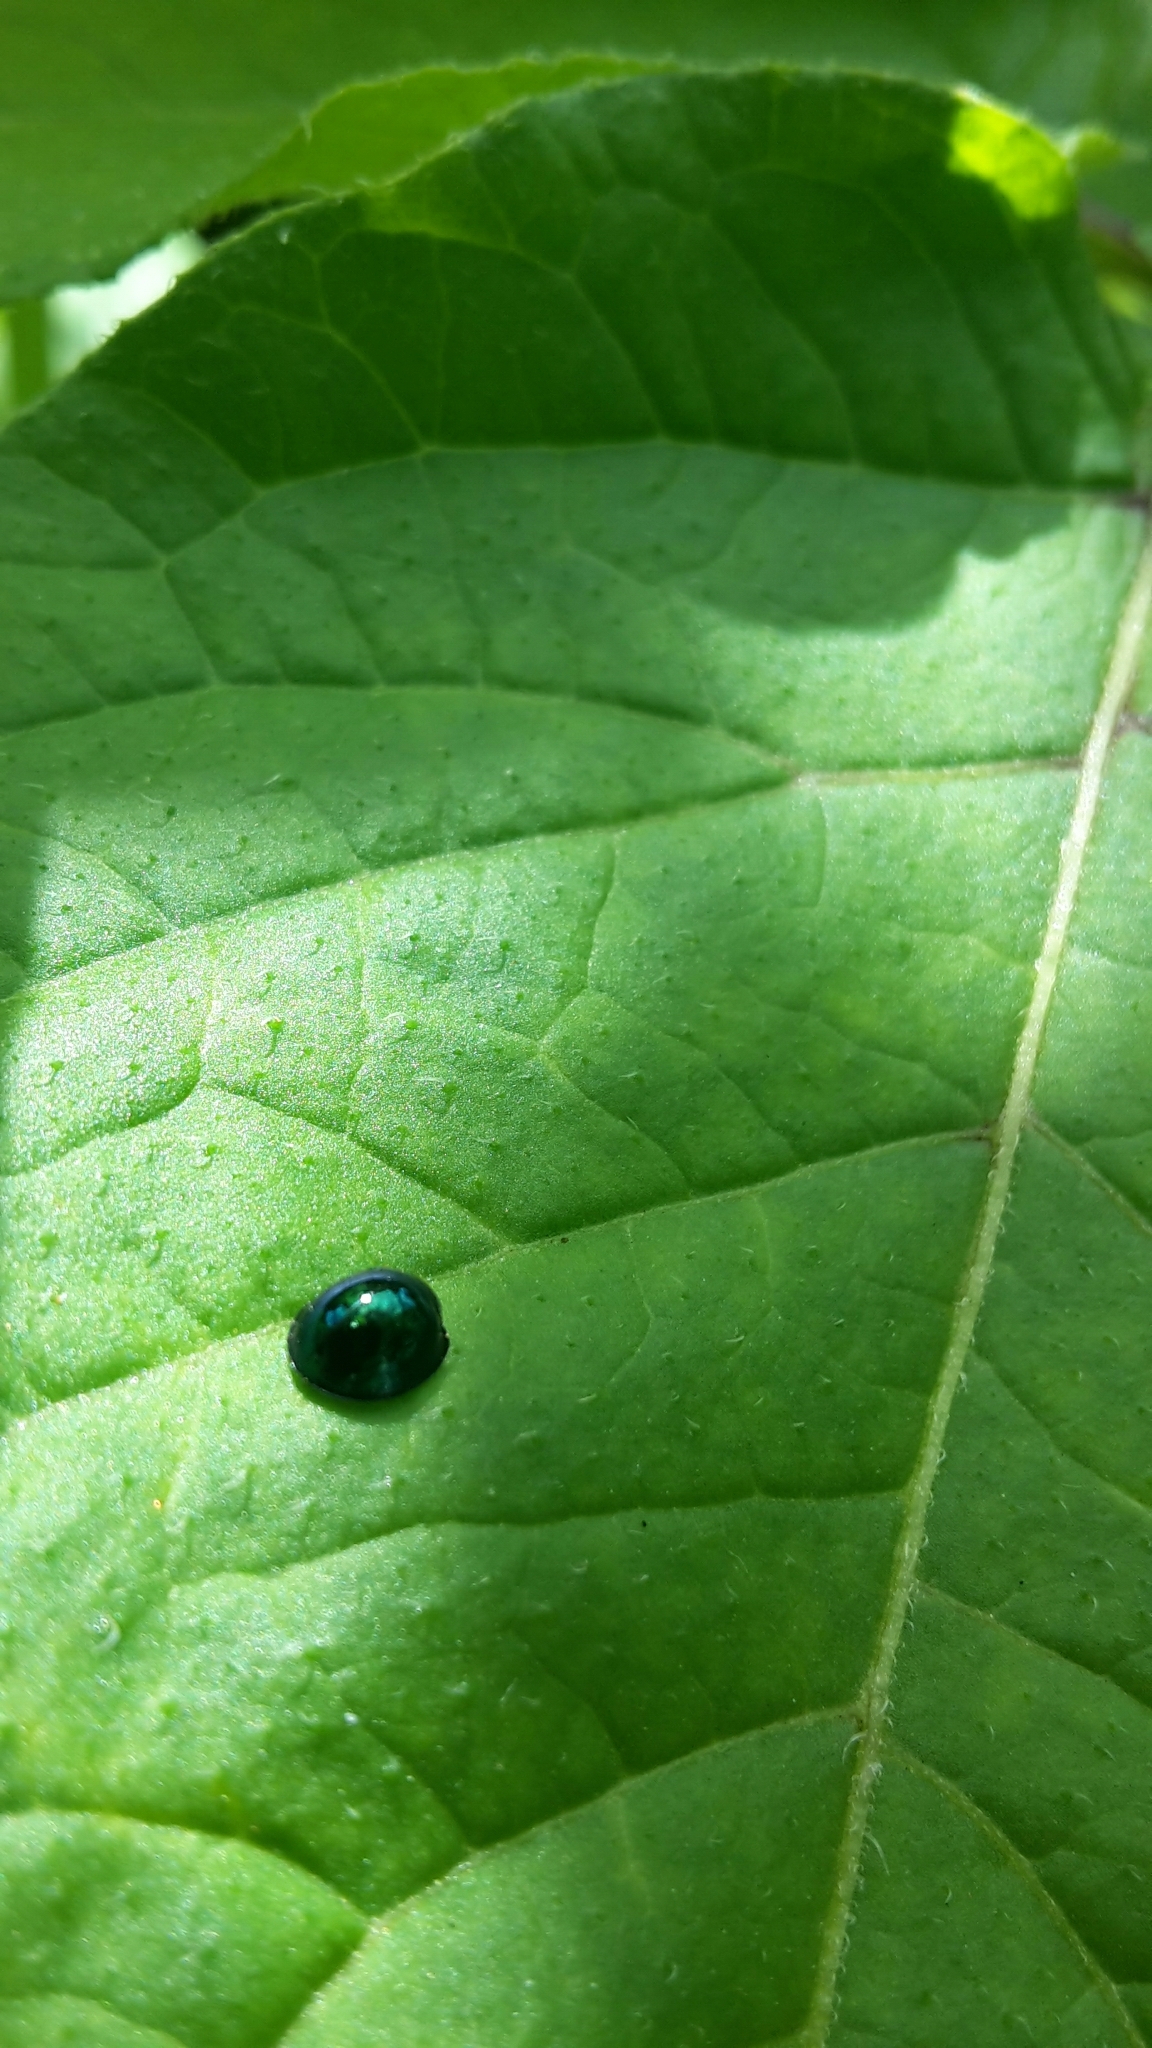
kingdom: Animalia
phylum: Arthropoda
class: Insecta
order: Coleoptera
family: Coccinellidae
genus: Halmus
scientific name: Halmus chalybeus
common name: Steel blue ladybird beetle
